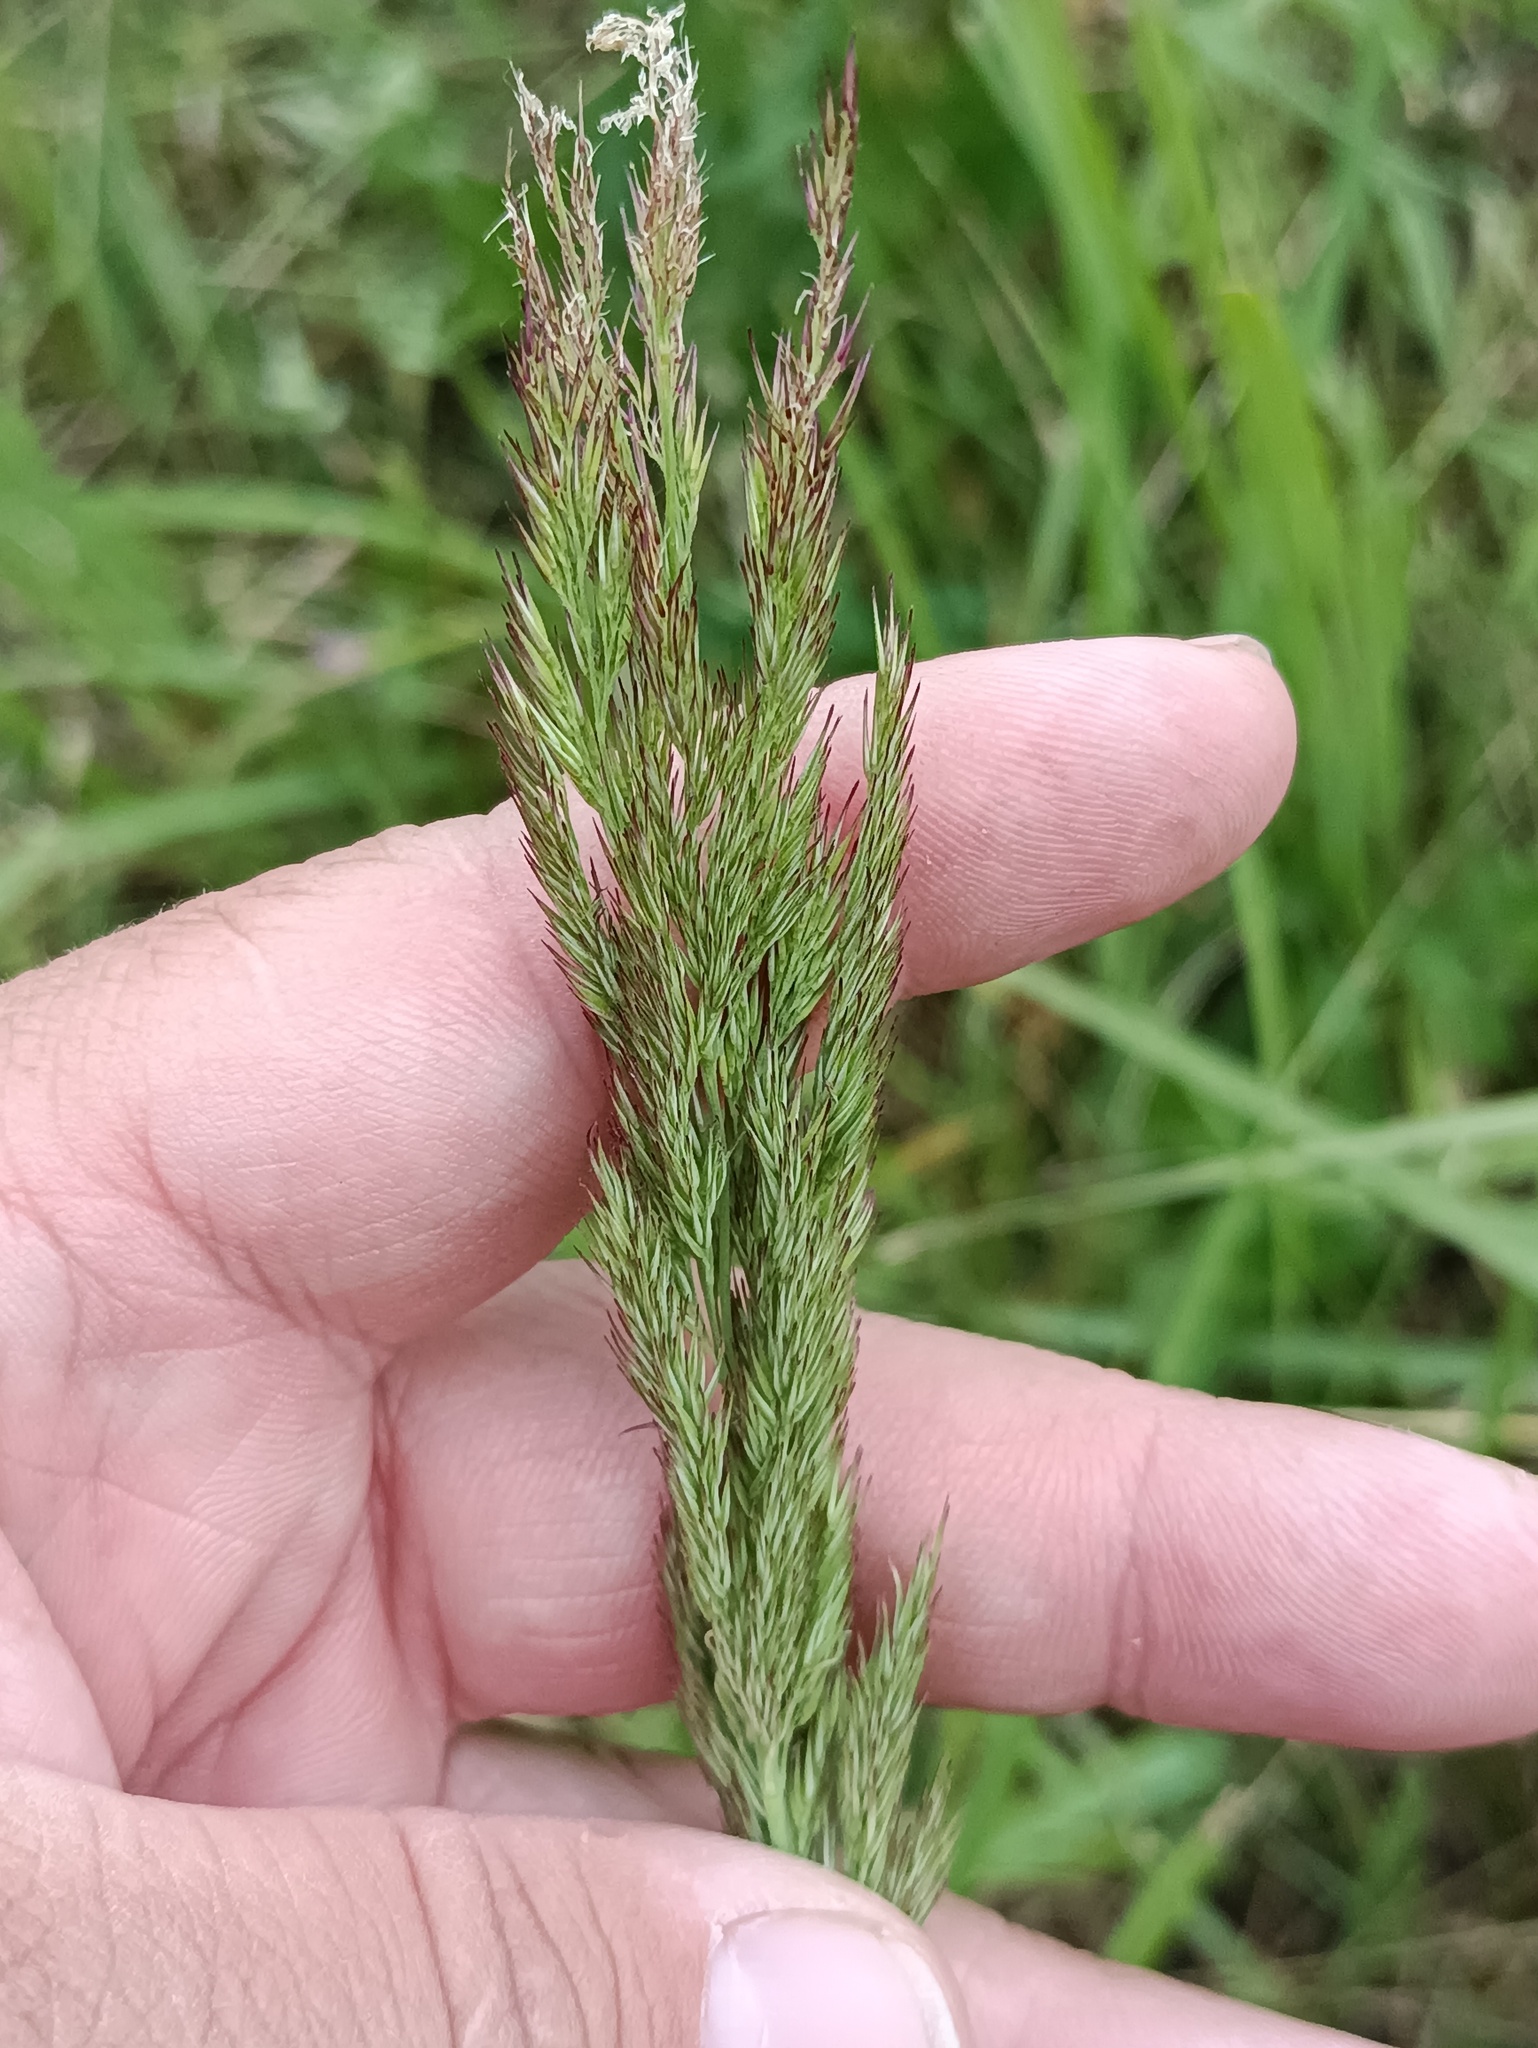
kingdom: Plantae
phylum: Tracheophyta
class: Liliopsida
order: Poales
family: Poaceae
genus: Calamagrostis
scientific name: Calamagrostis epigejos
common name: Wood small-reed
